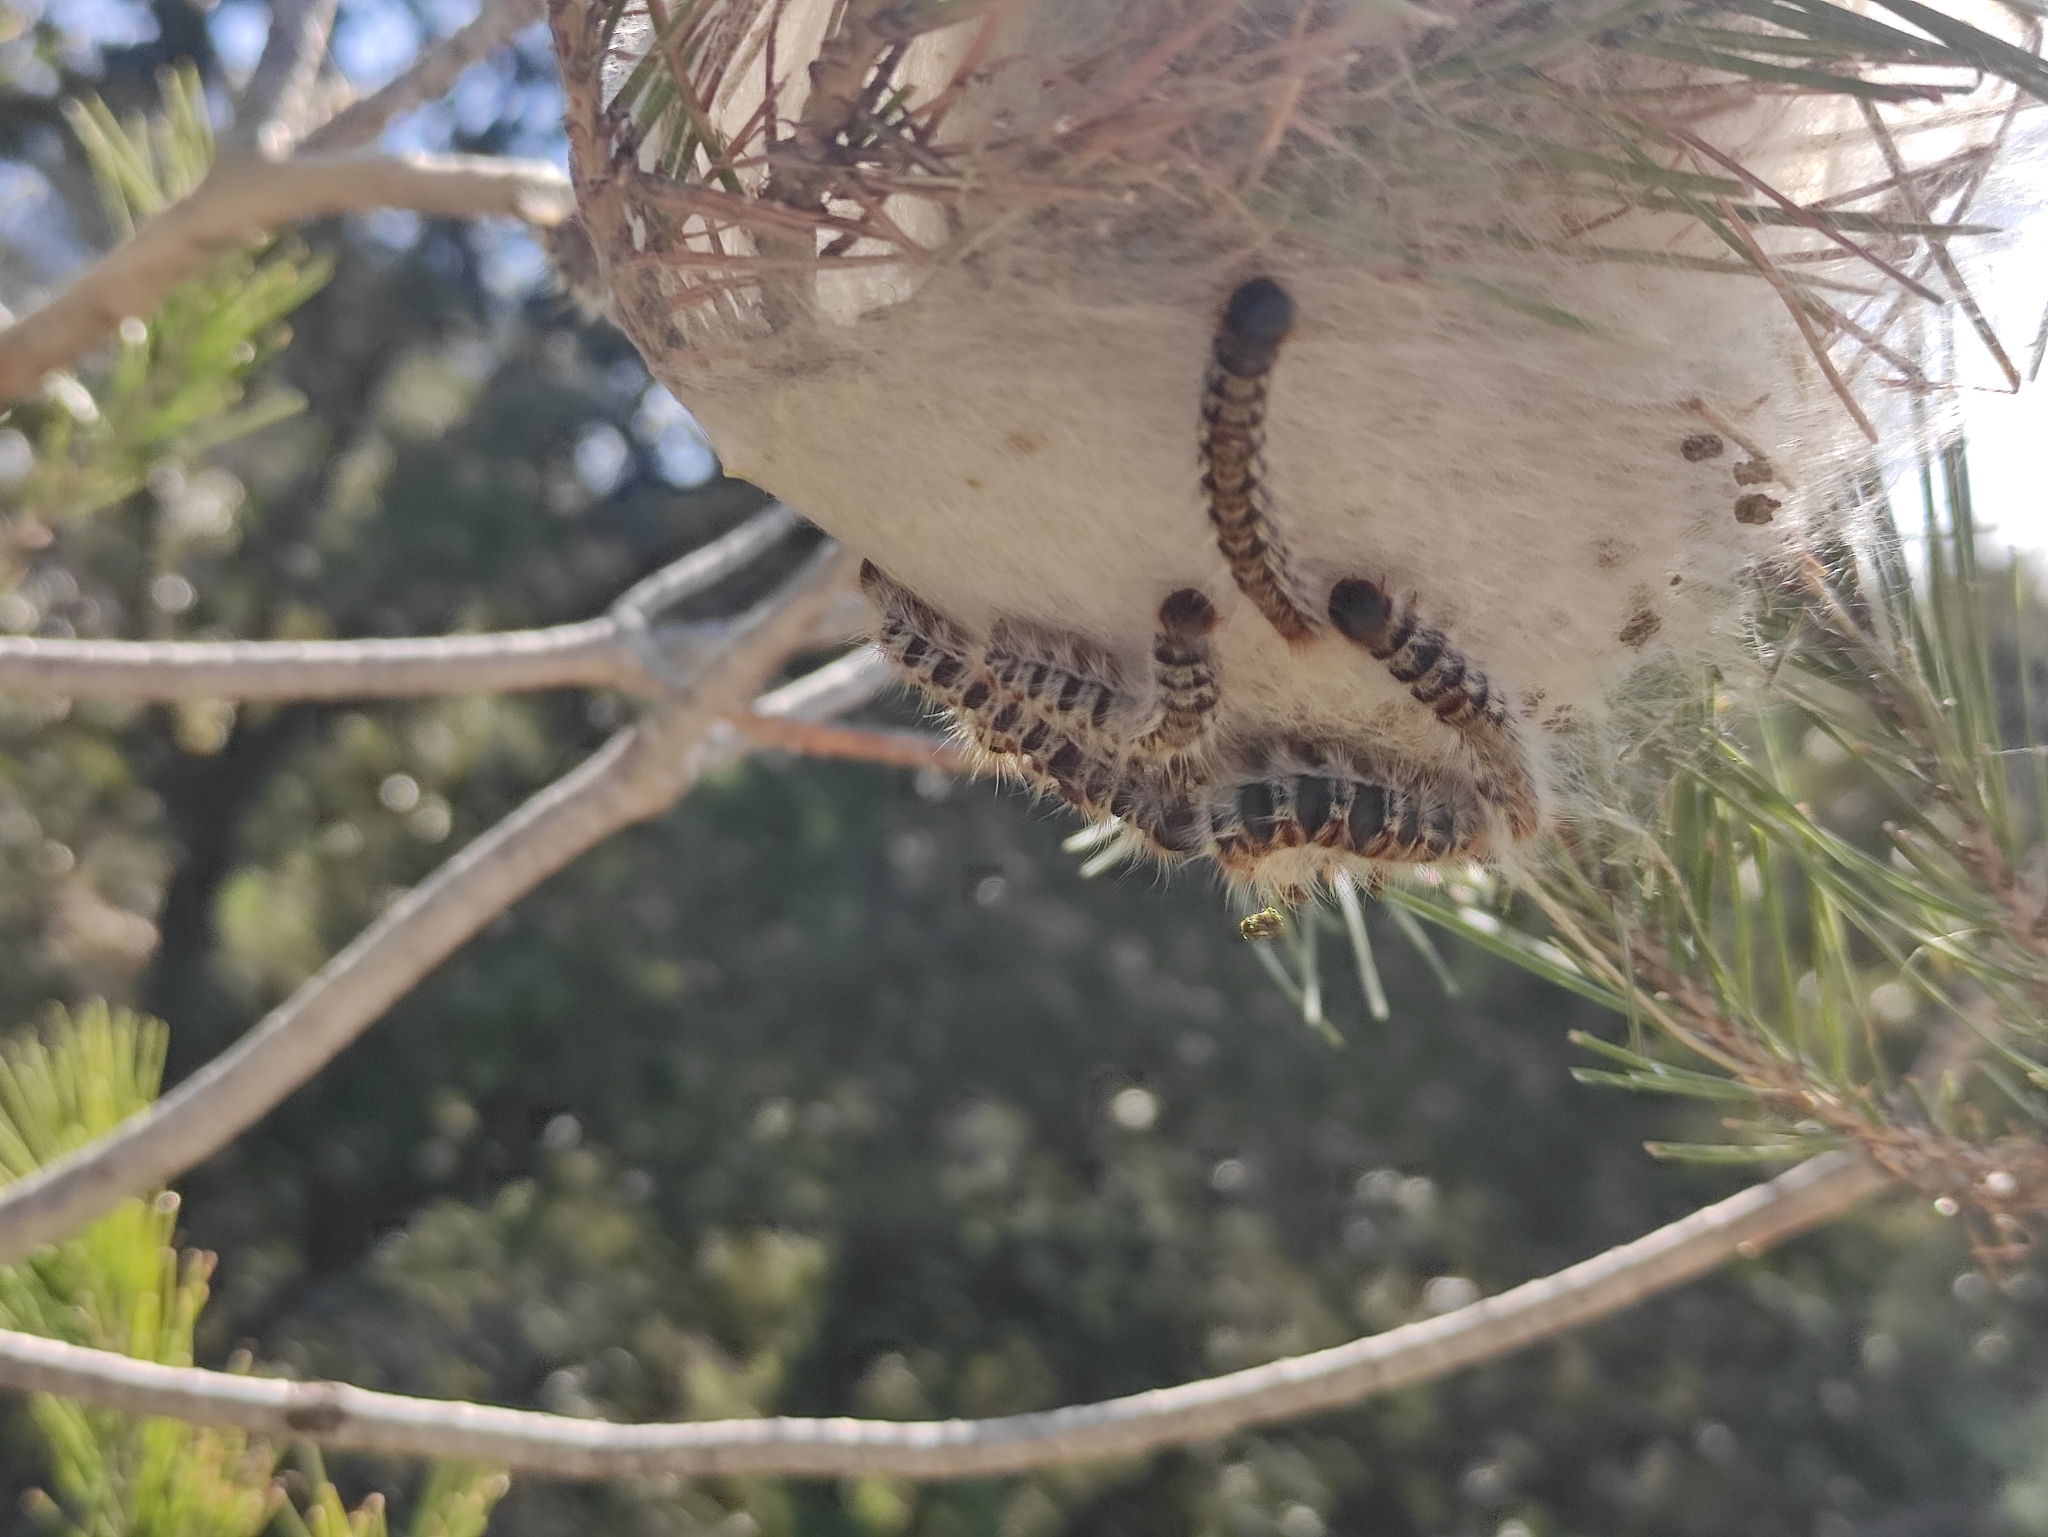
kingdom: Animalia
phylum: Arthropoda
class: Insecta
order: Lepidoptera
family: Notodontidae
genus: Thaumetopoea
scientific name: Thaumetopoea pityocampa
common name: Pine processionary
